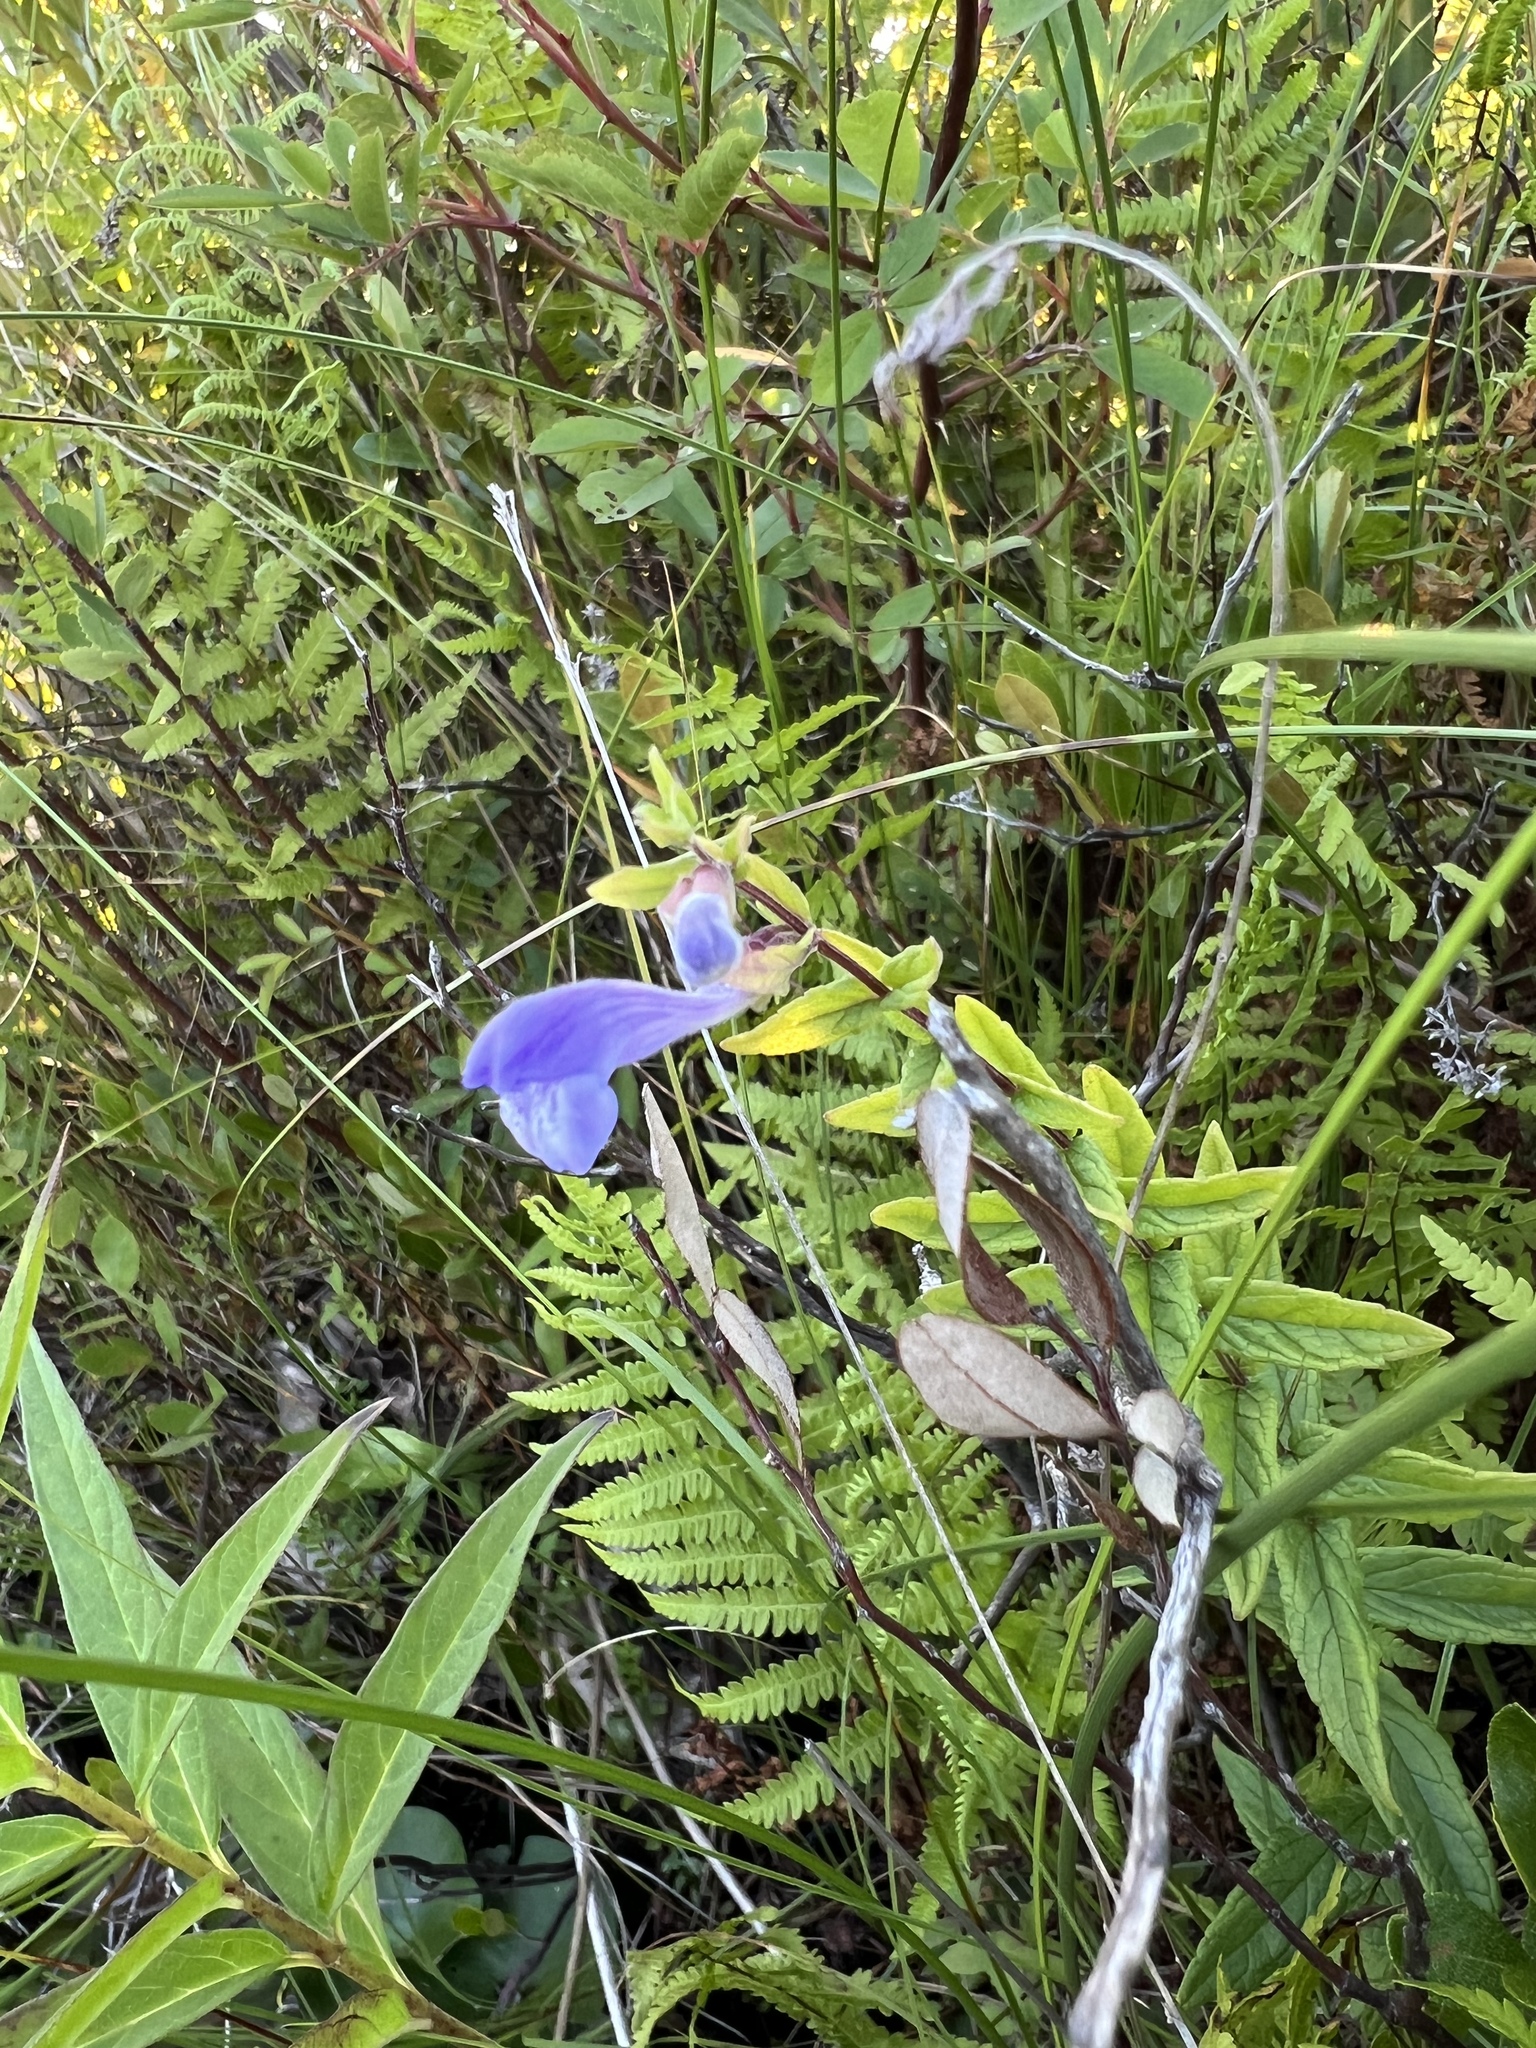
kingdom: Plantae
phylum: Tracheophyta
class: Magnoliopsida
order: Lamiales
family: Lamiaceae
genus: Scutellaria
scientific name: Scutellaria galericulata
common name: Skullcap
